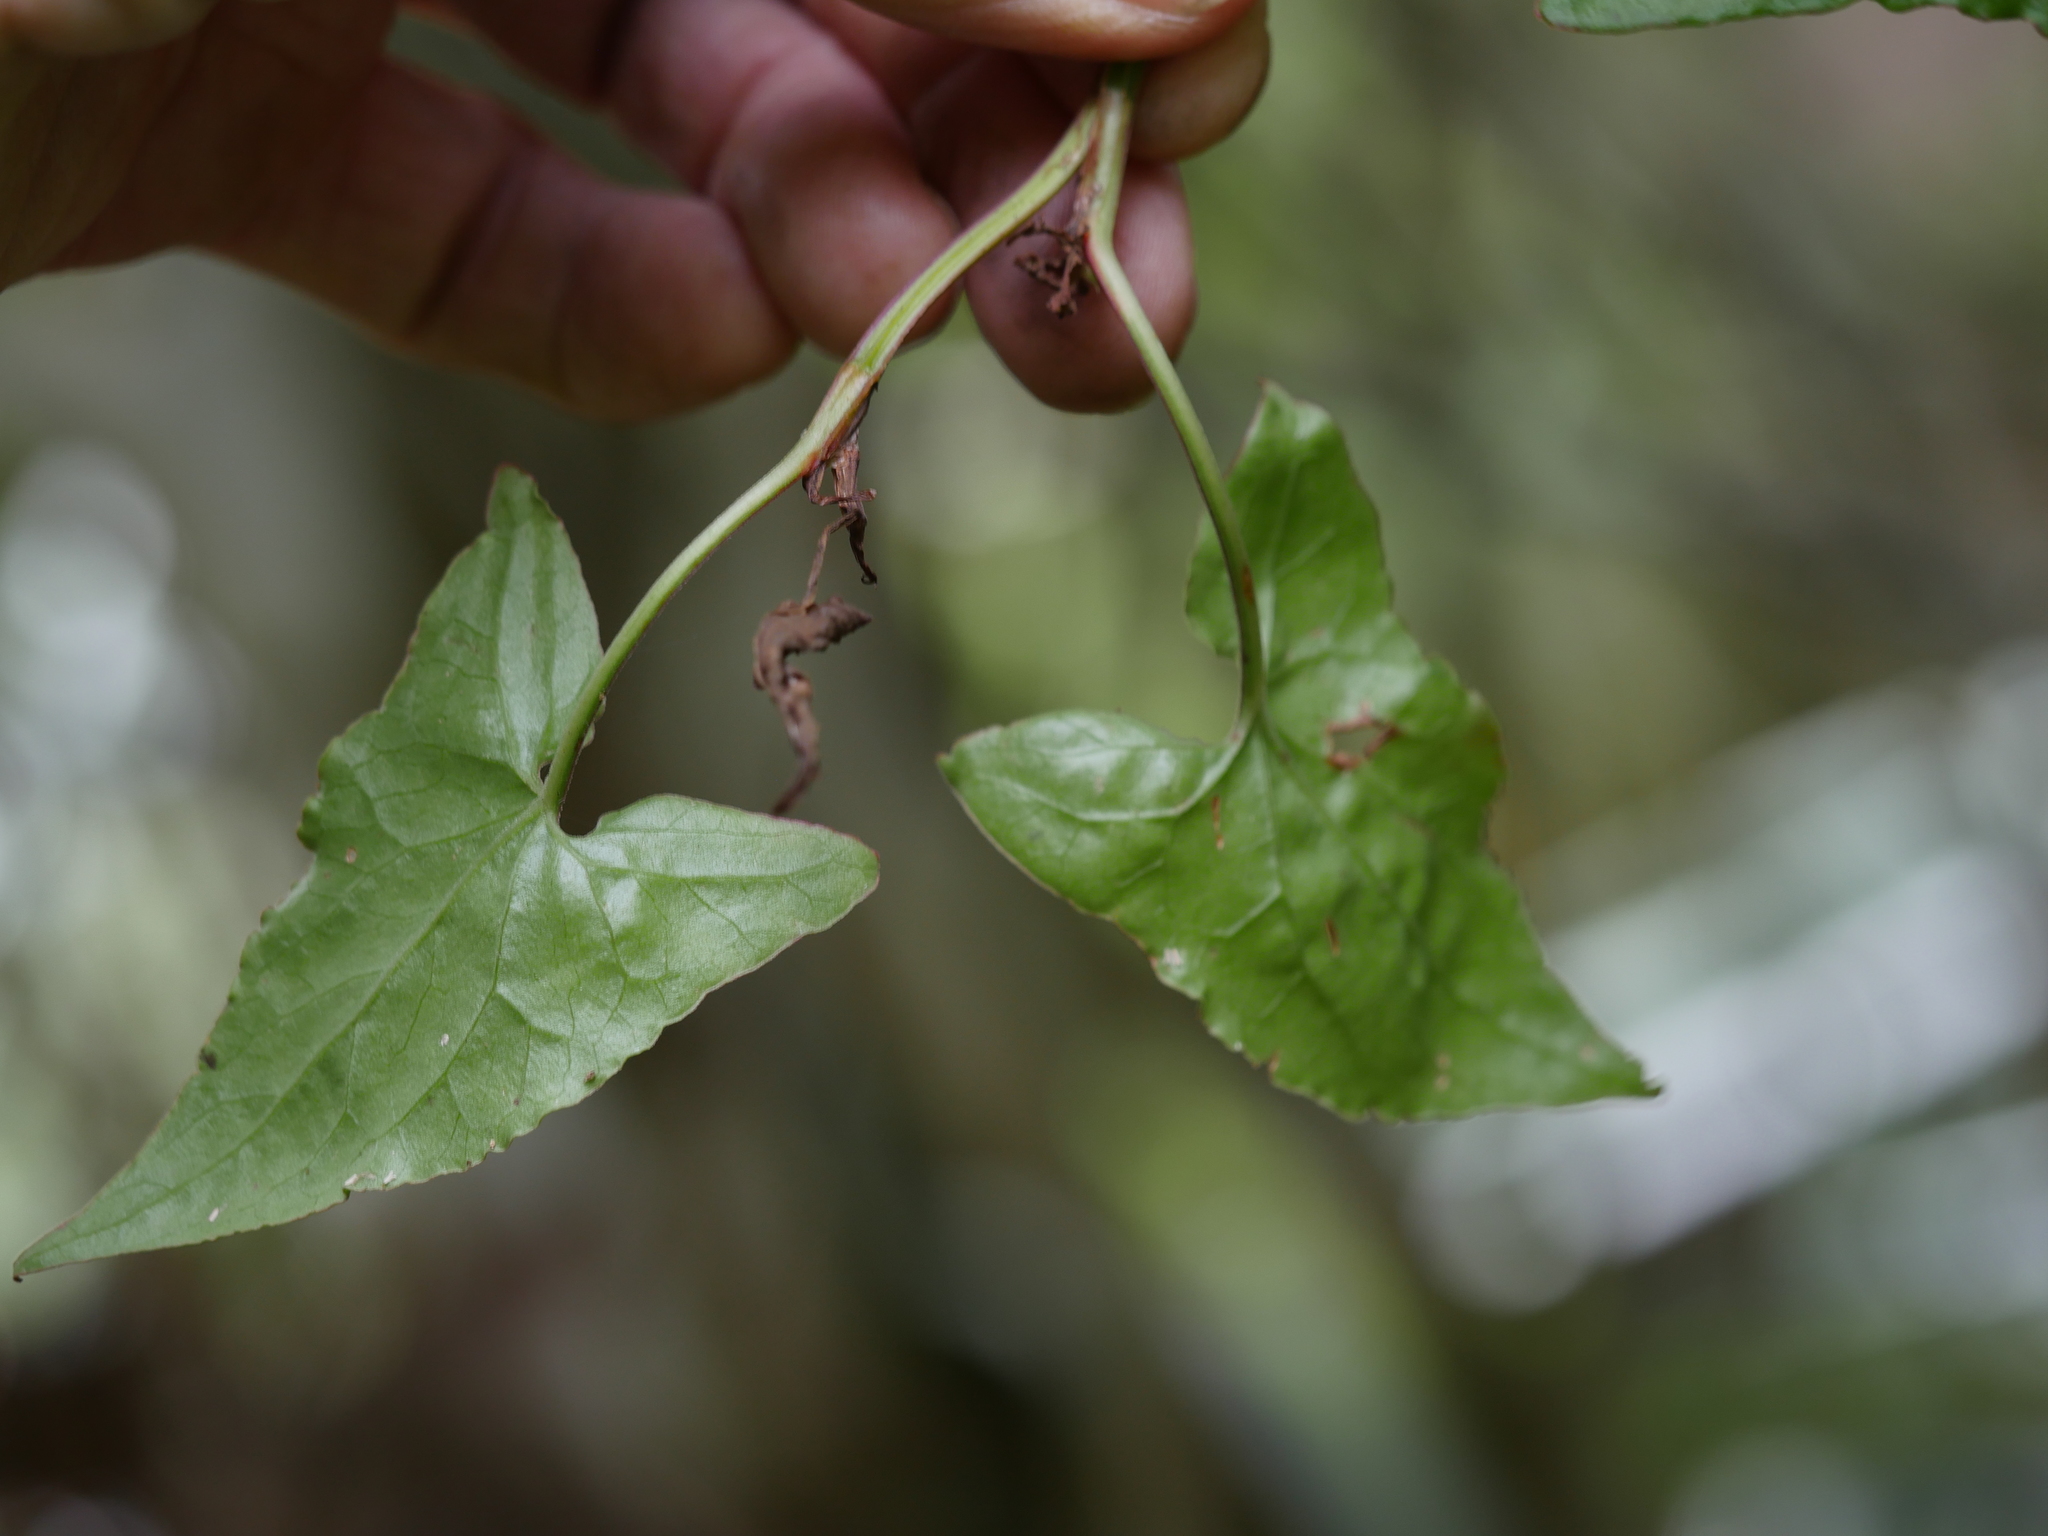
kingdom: Plantae
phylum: Tracheophyta
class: Magnoliopsida
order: Caryophyllales
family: Polygonaceae
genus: Rumex
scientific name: Rumex sagittatus
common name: Climbing dock
